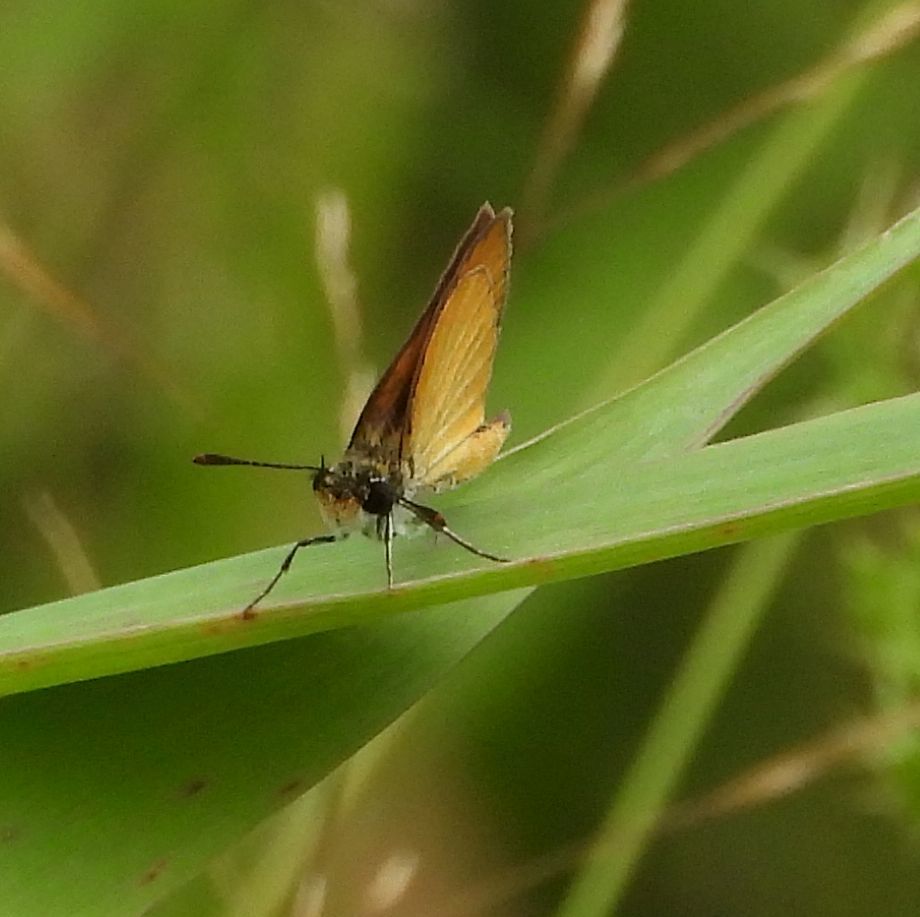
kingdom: Animalia
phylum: Arthropoda
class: Insecta
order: Lepidoptera
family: Hesperiidae
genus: Ancyloxypha
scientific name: Ancyloxypha numitor
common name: Least skipper
